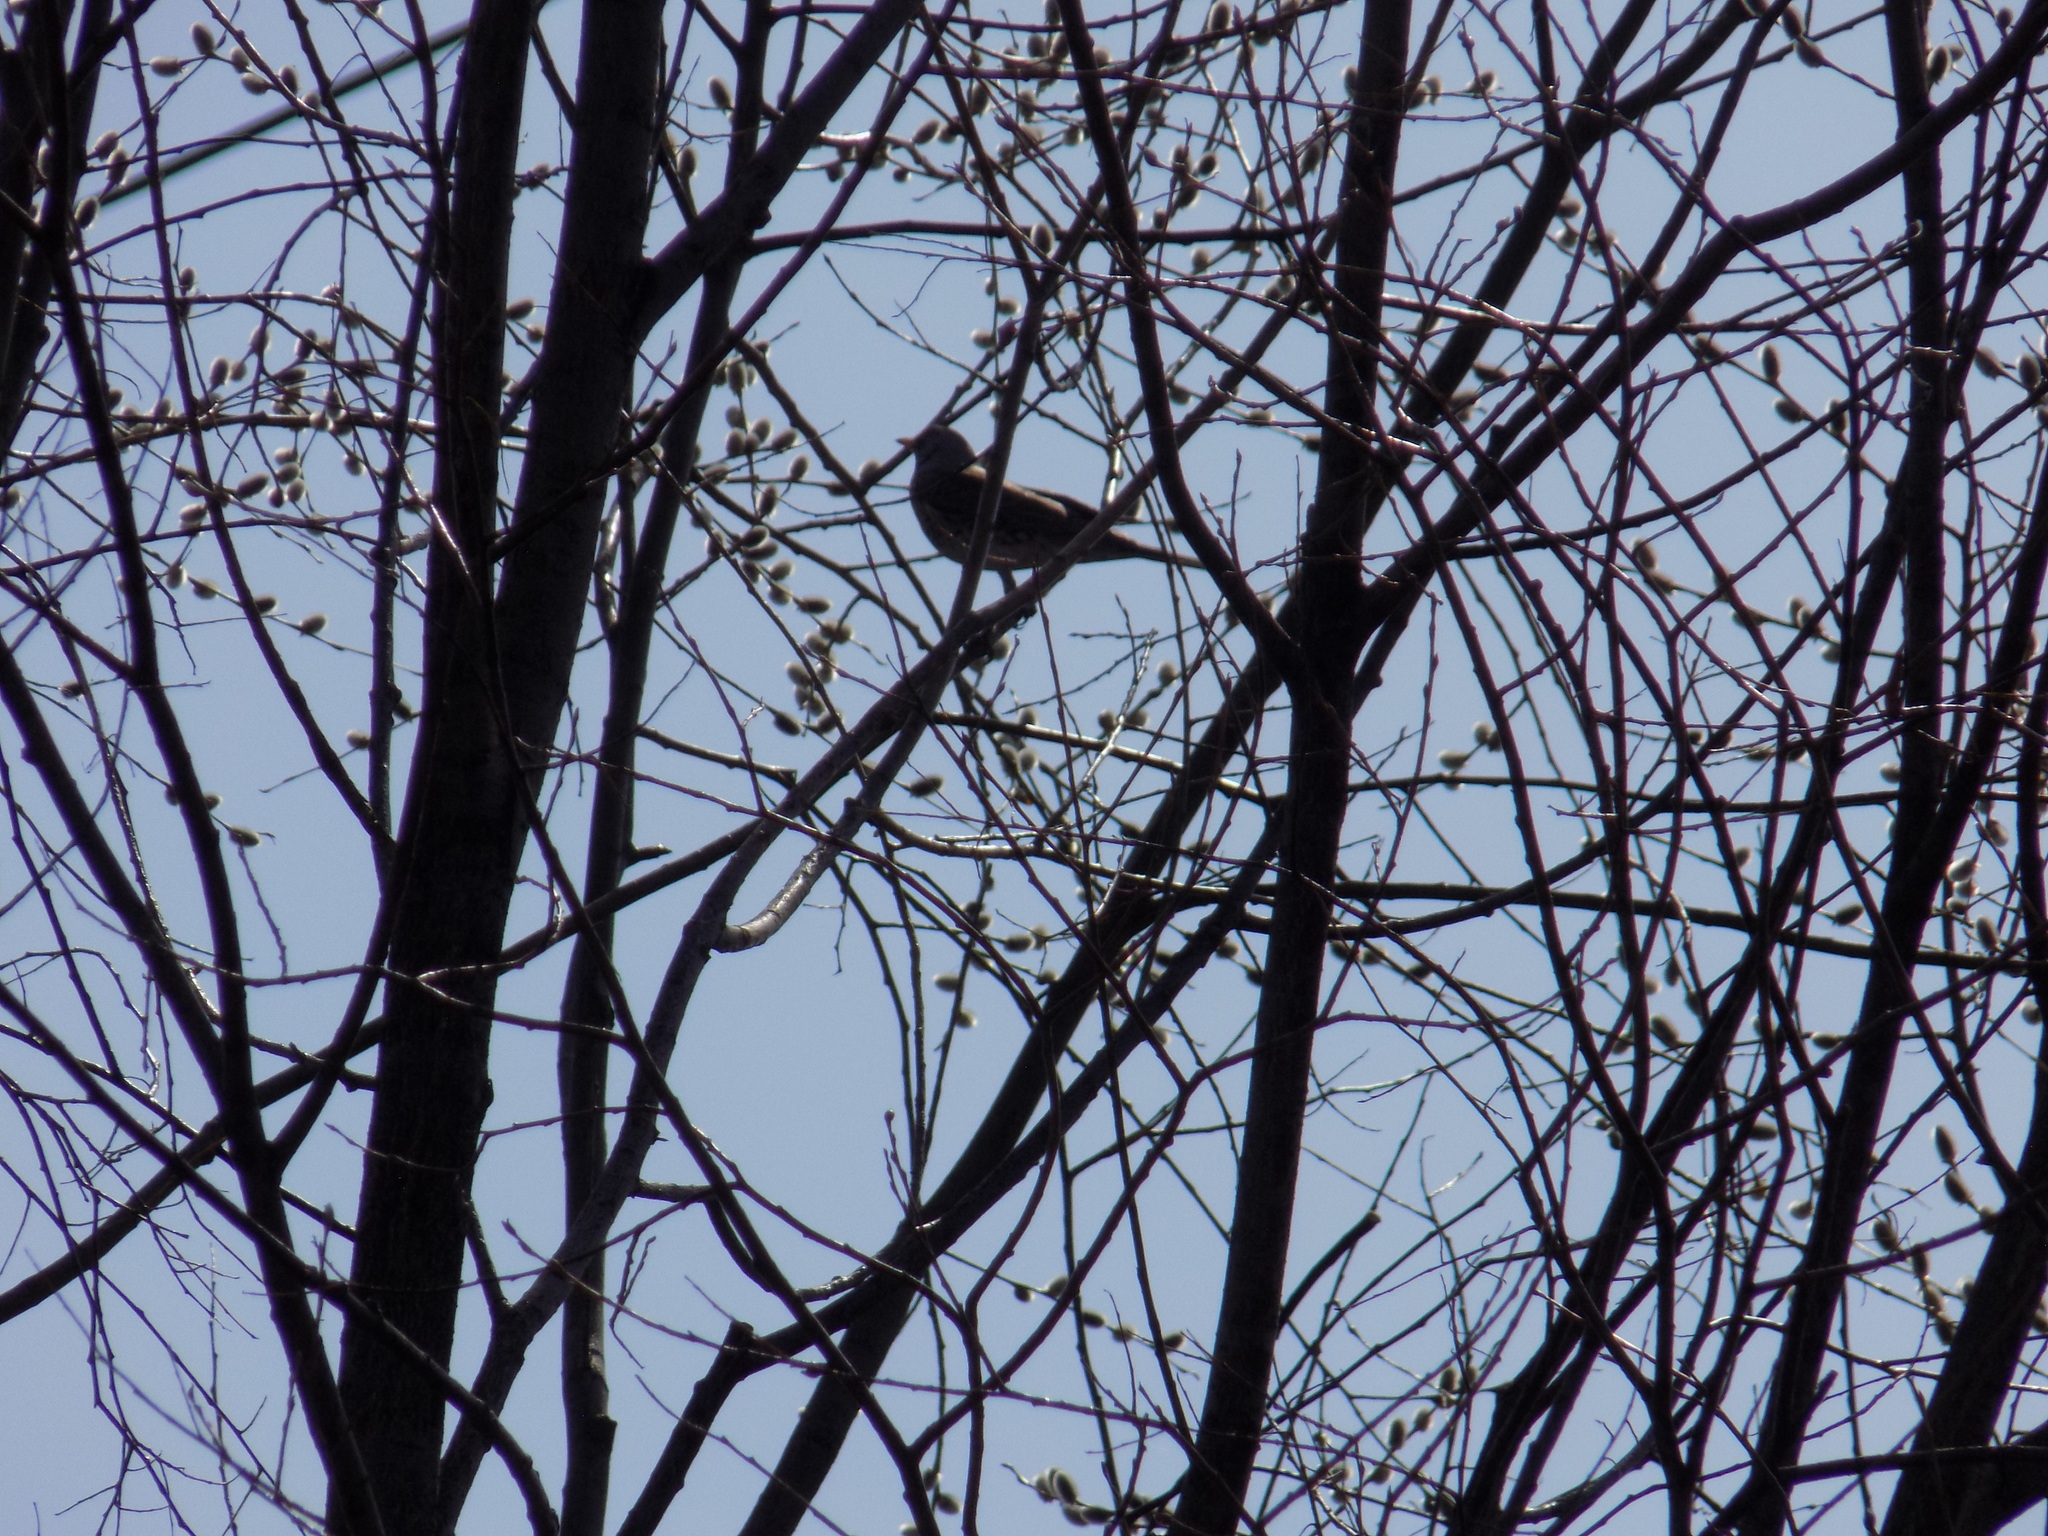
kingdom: Animalia
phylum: Chordata
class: Aves
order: Passeriformes
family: Turdidae
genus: Turdus
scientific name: Turdus pilaris
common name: Fieldfare
